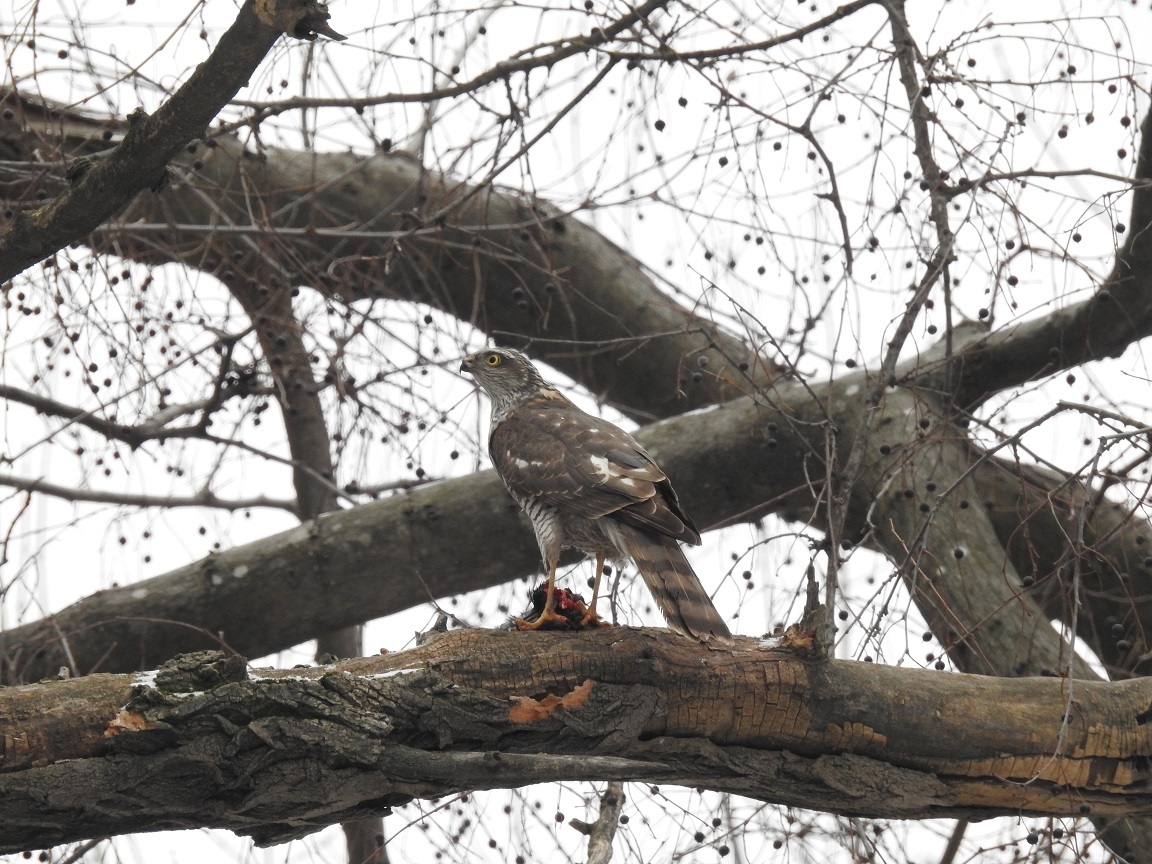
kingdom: Animalia
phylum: Chordata
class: Aves
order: Accipitriformes
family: Accipitridae
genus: Accipiter
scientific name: Accipiter nisus
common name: Eurasian sparrowhawk
